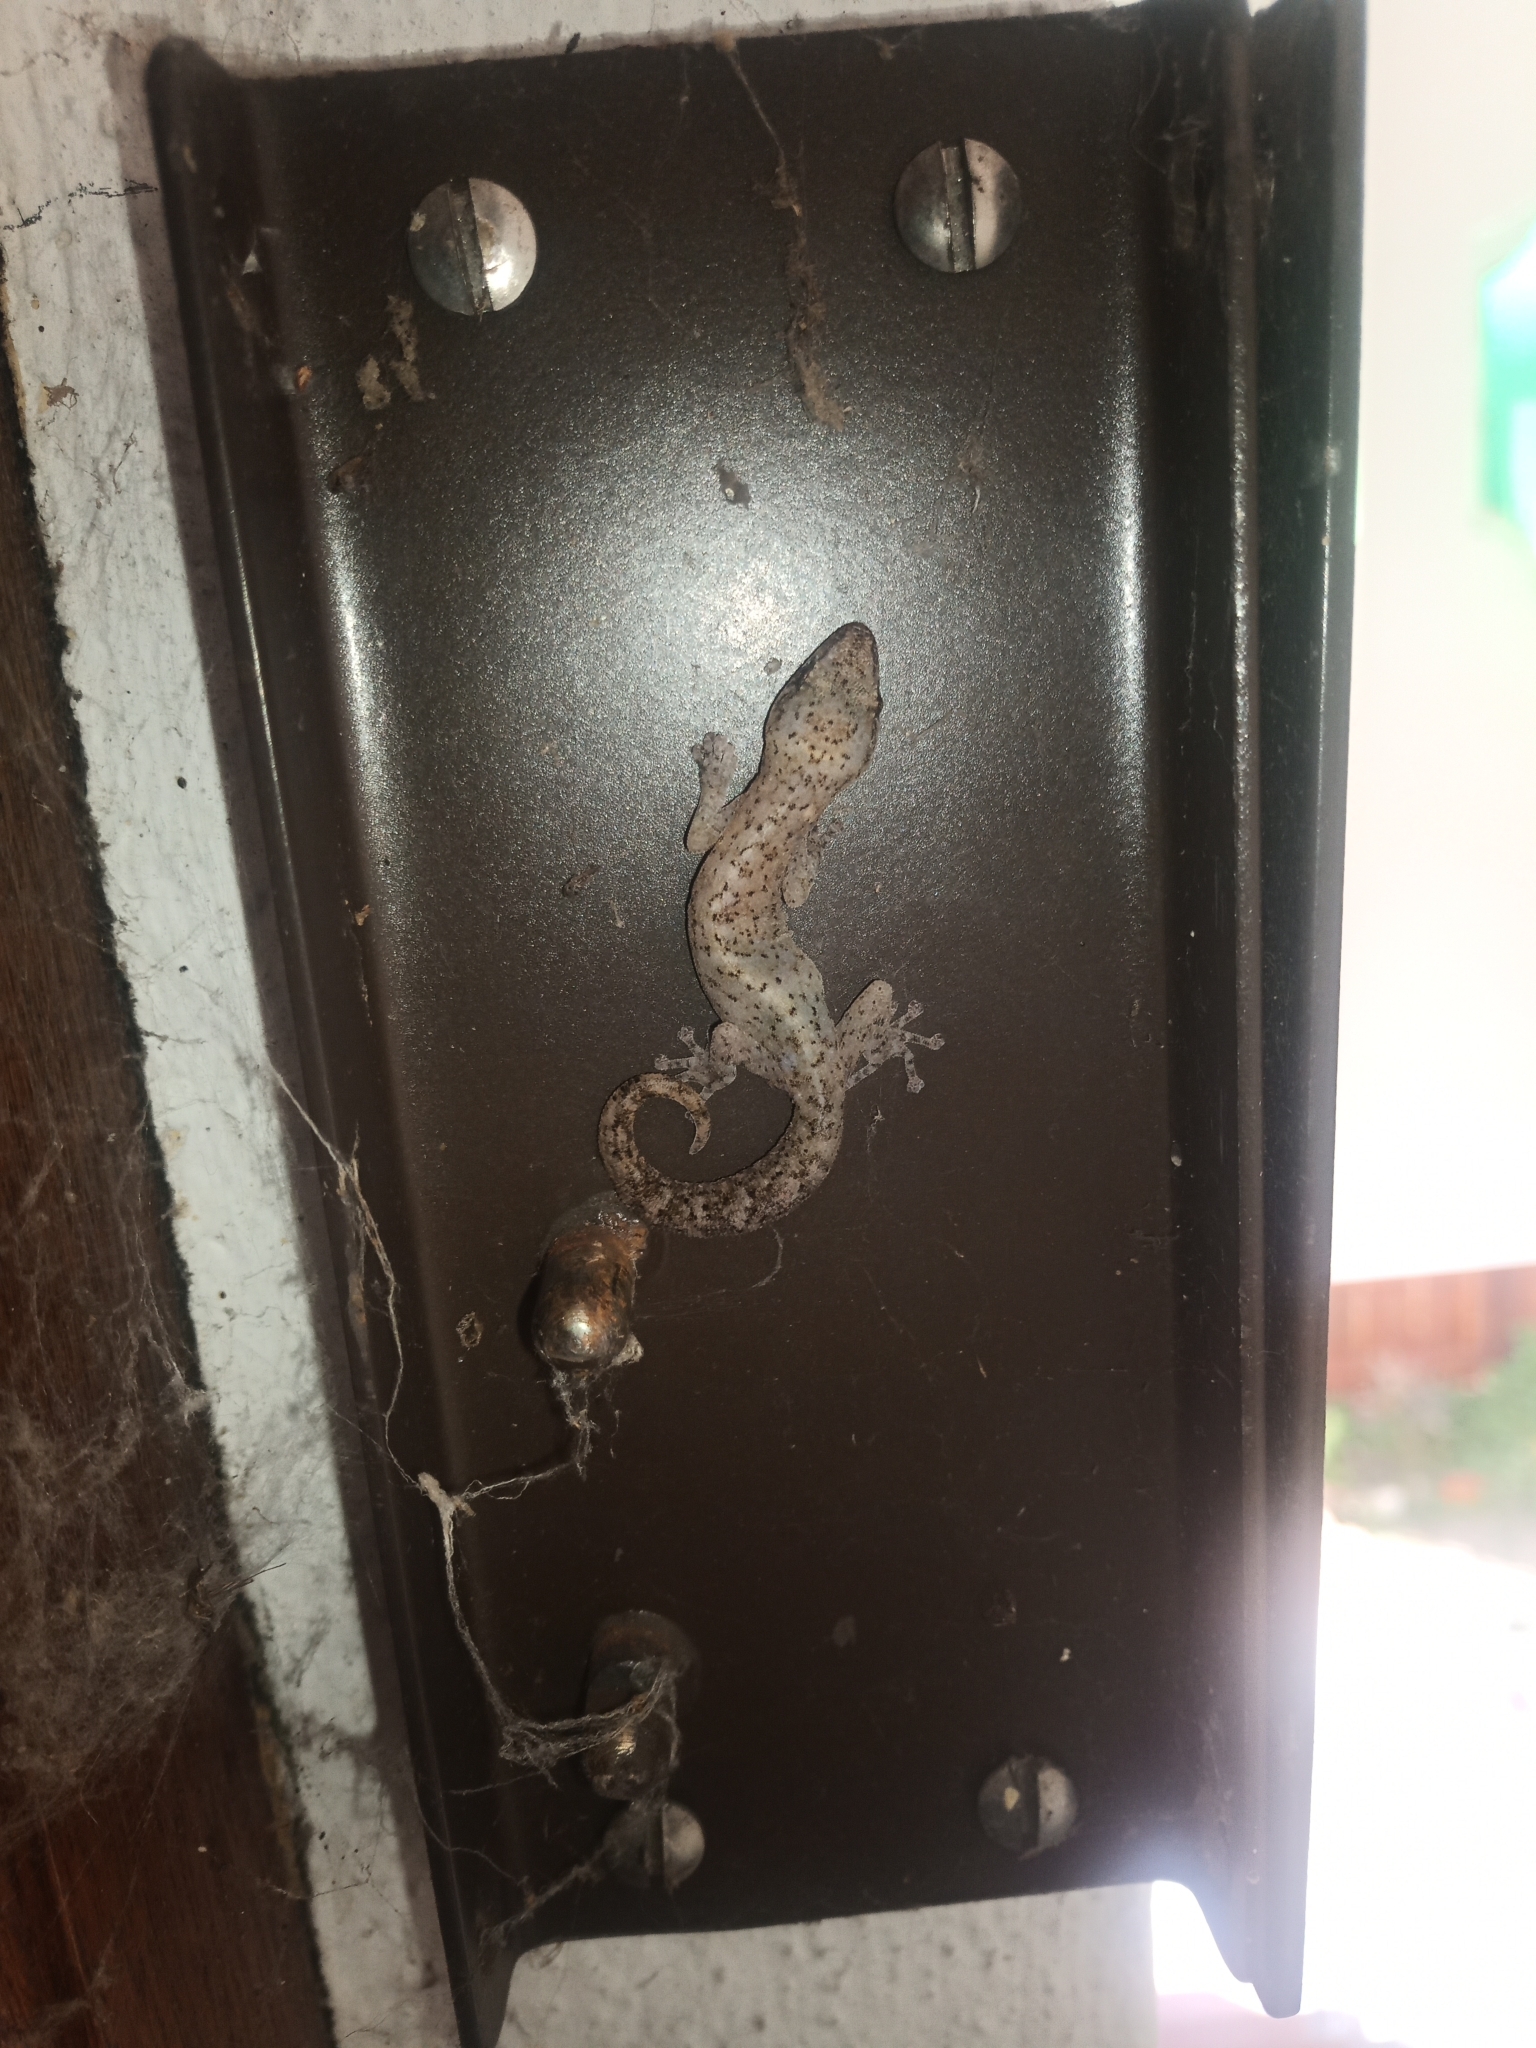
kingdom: Animalia
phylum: Chordata
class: Squamata
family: Gekkonidae
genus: Afrogecko
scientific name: Afrogecko porphyreus
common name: Marbled leaf-toed gecko
